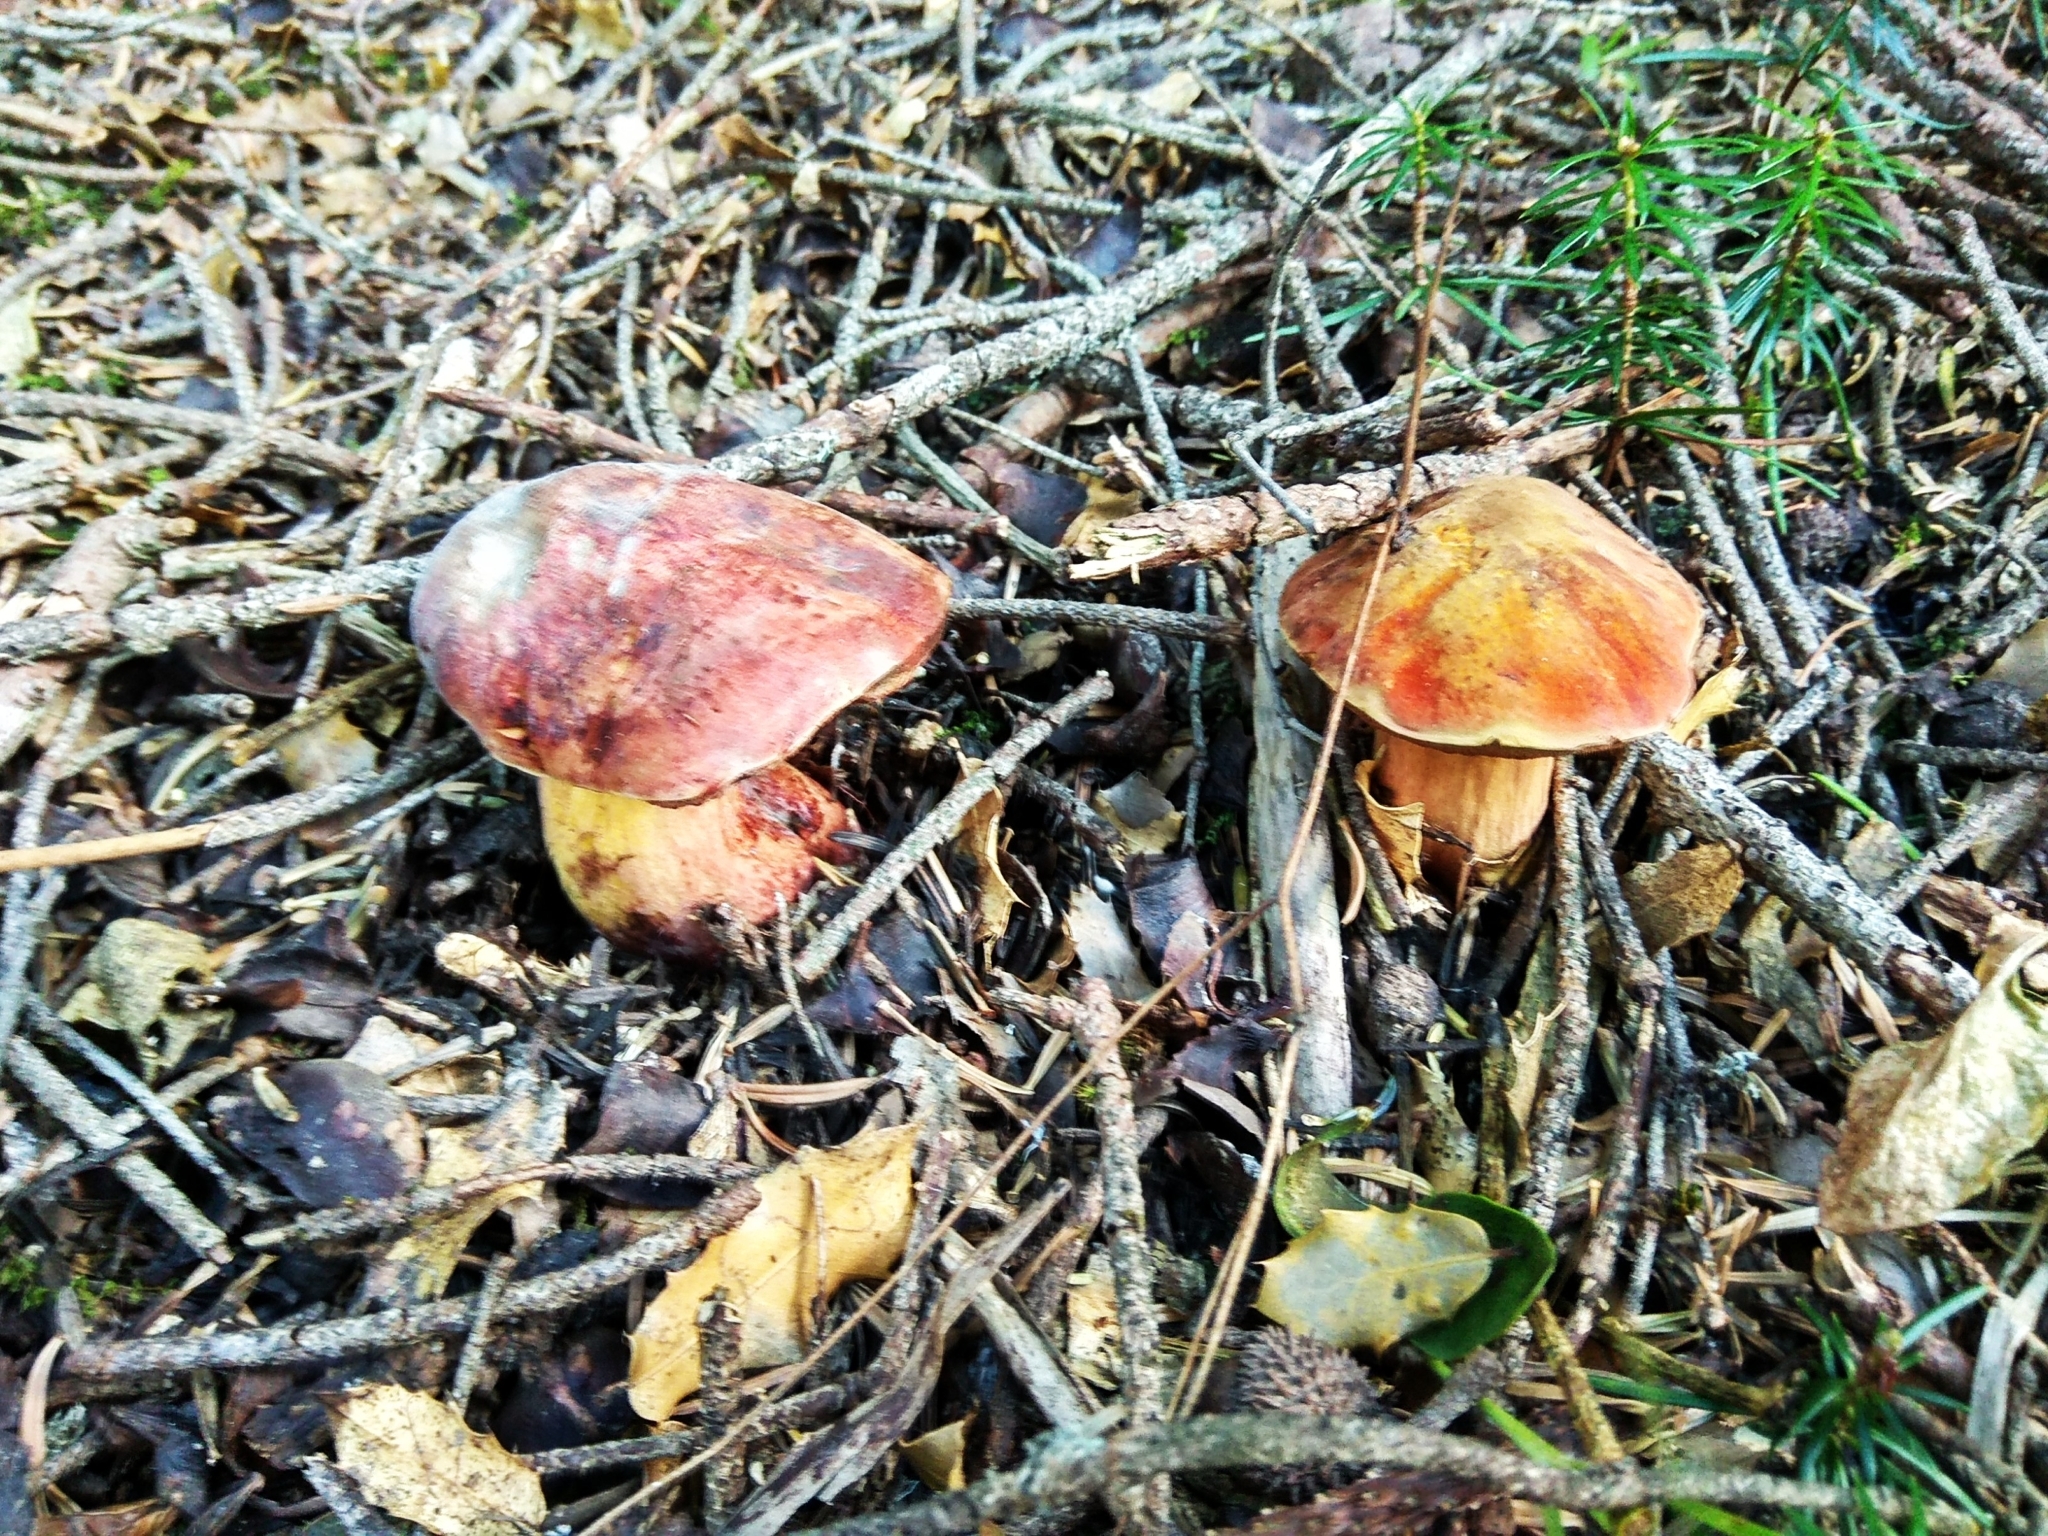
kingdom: Fungi
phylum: Basidiomycota
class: Agaricomycetes
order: Boletales
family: Boletaceae
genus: Suillellus
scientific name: Suillellus queletii
